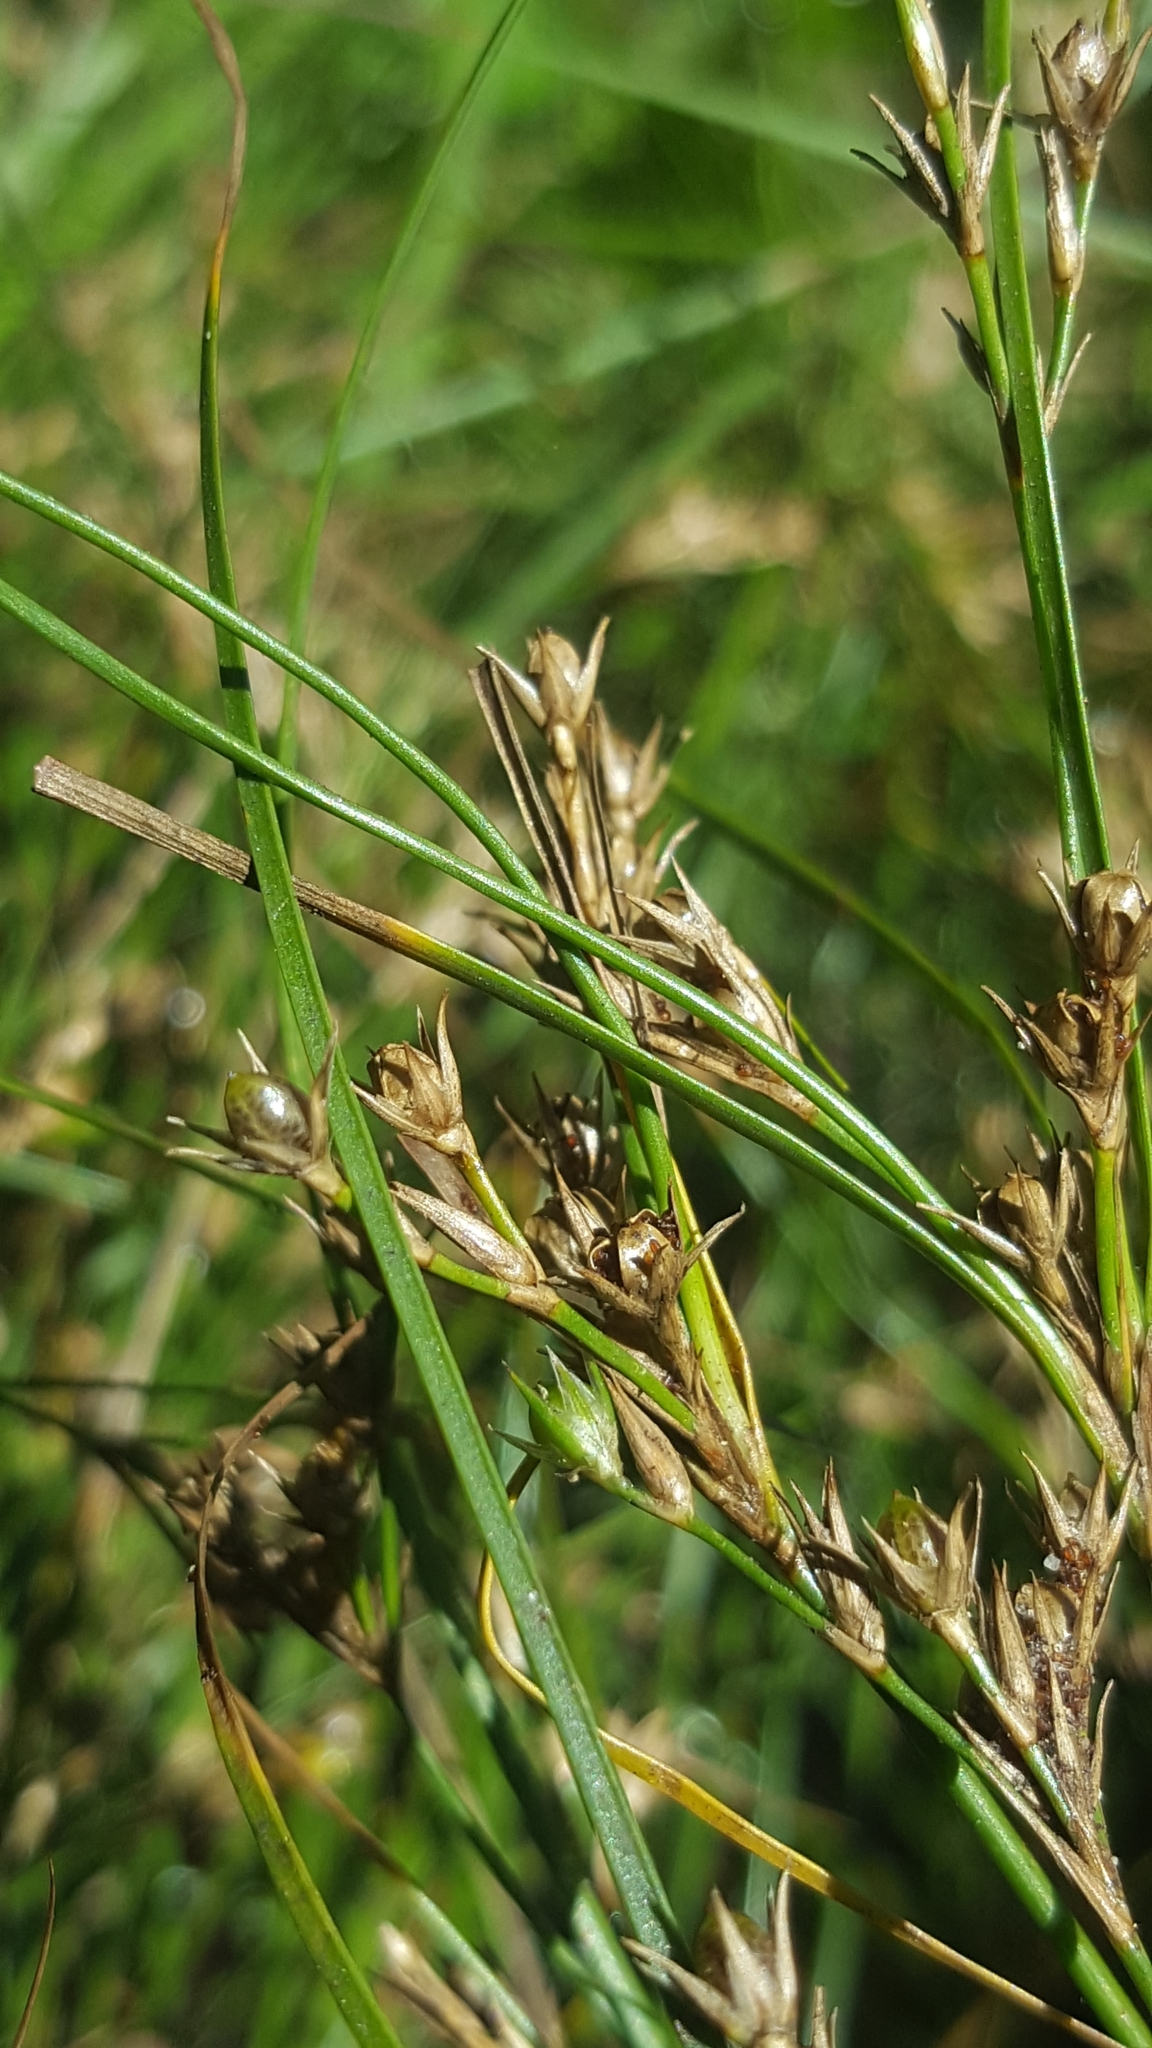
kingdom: Plantae
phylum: Tracheophyta
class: Liliopsida
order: Poales
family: Juncaceae
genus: Juncus
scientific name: Juncus tenuis
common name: Slender rush
